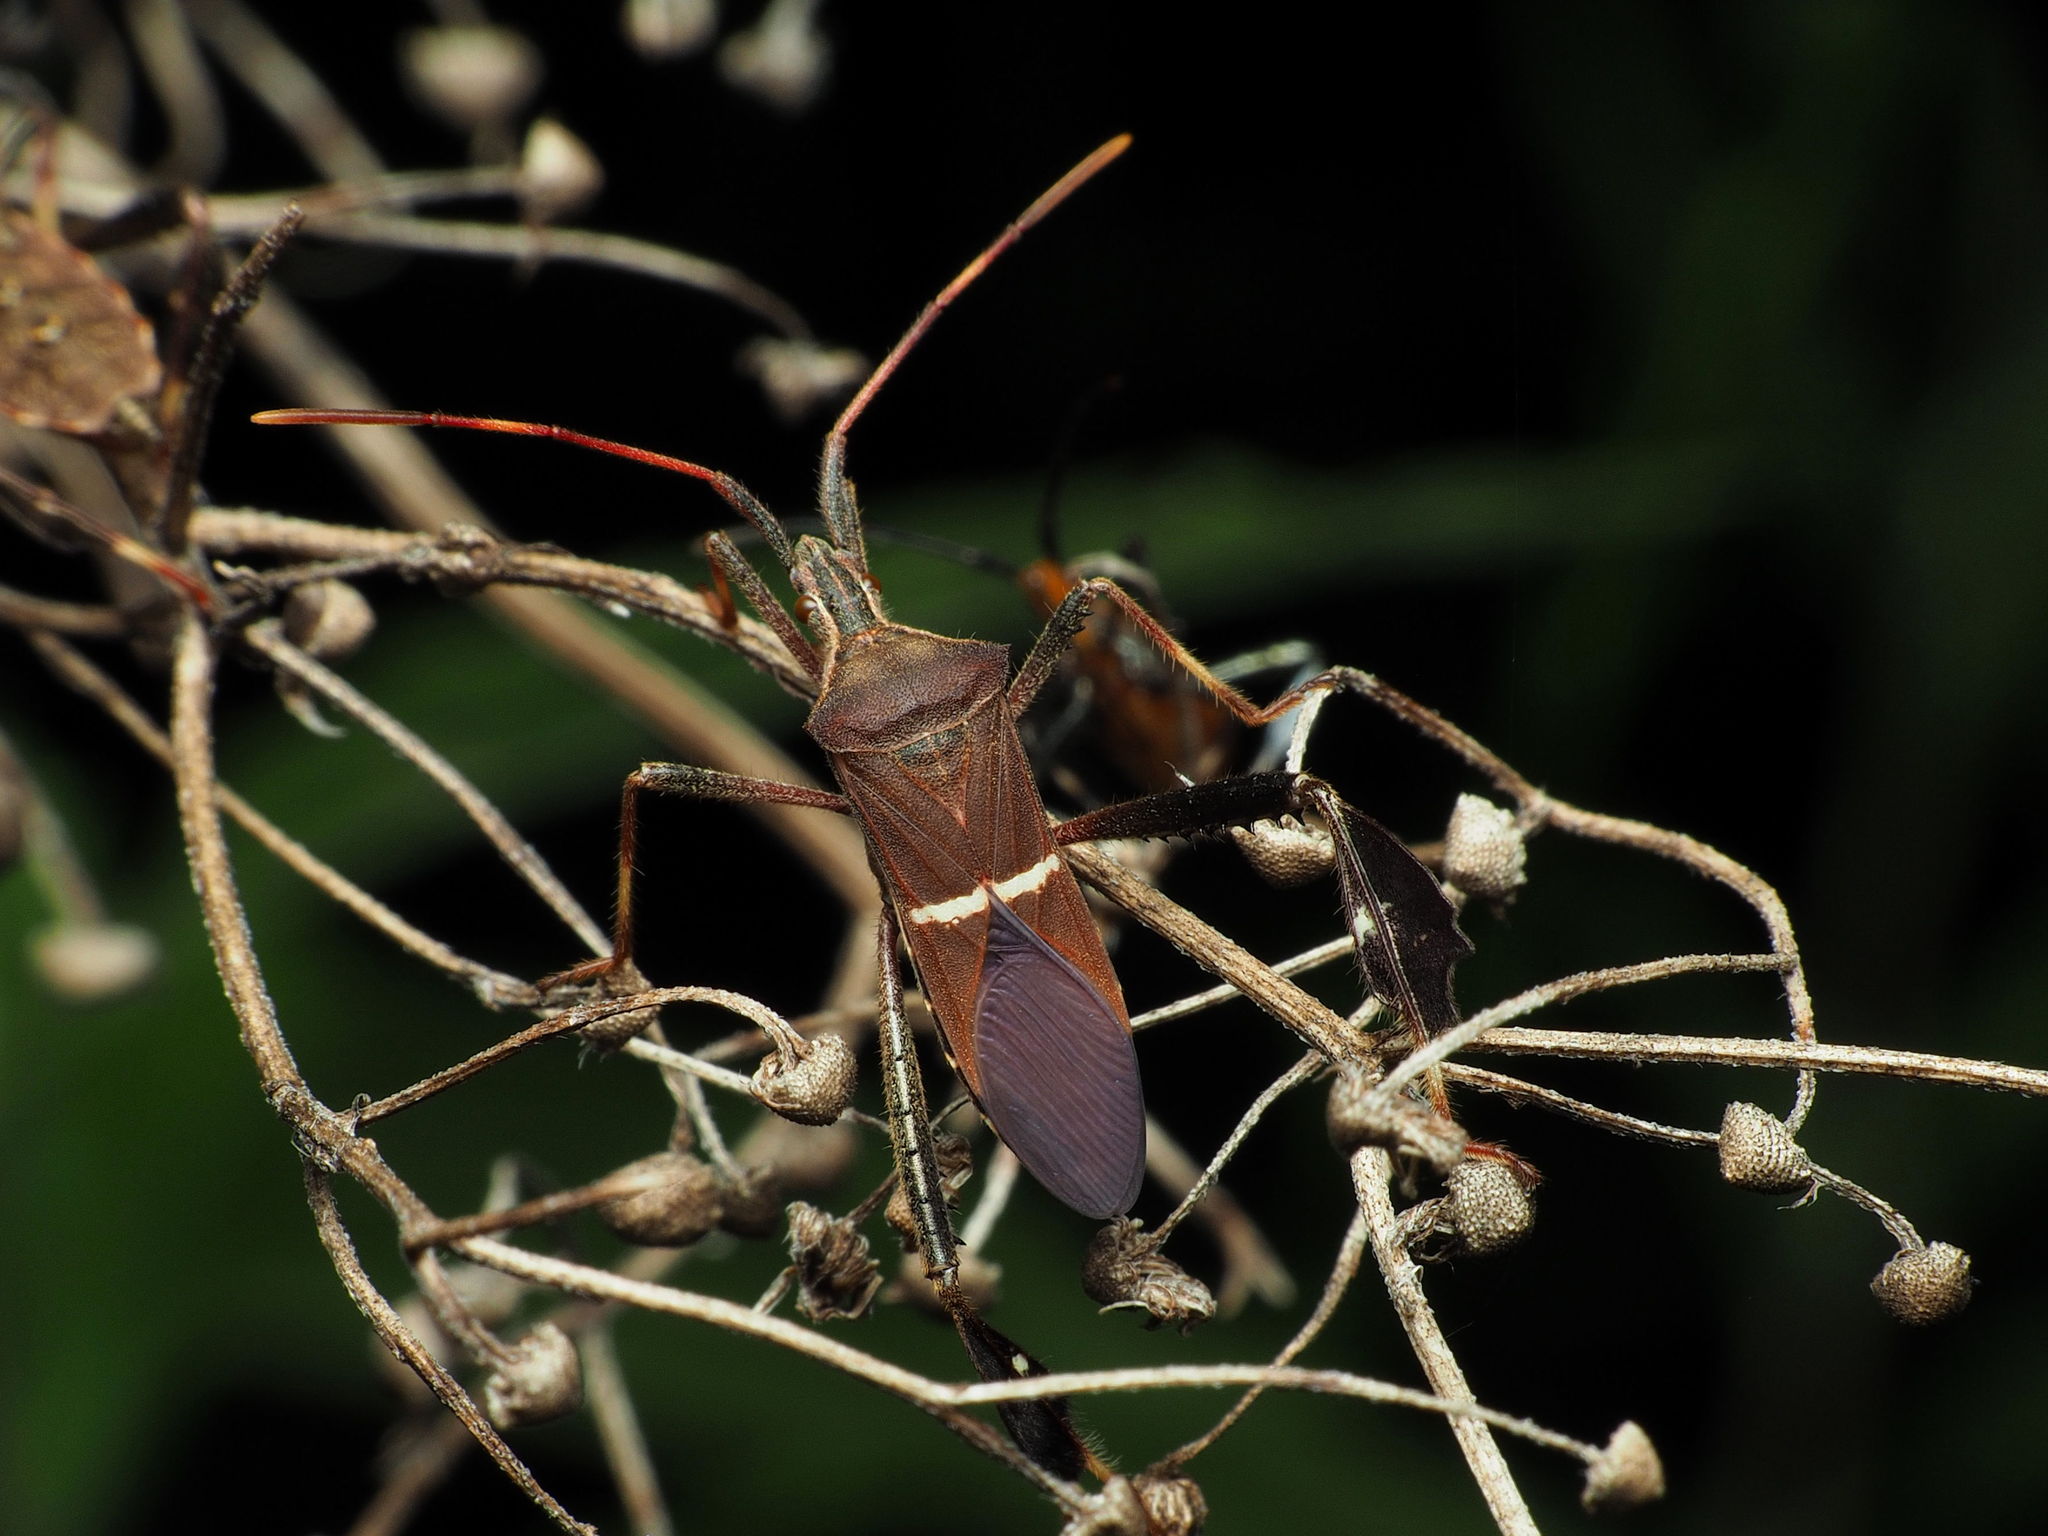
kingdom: Animalia
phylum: Arthropoda
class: Insecta
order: Hemiptera
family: Coreidae
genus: Leptoglossus
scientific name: Leptoglossus phyllopus
